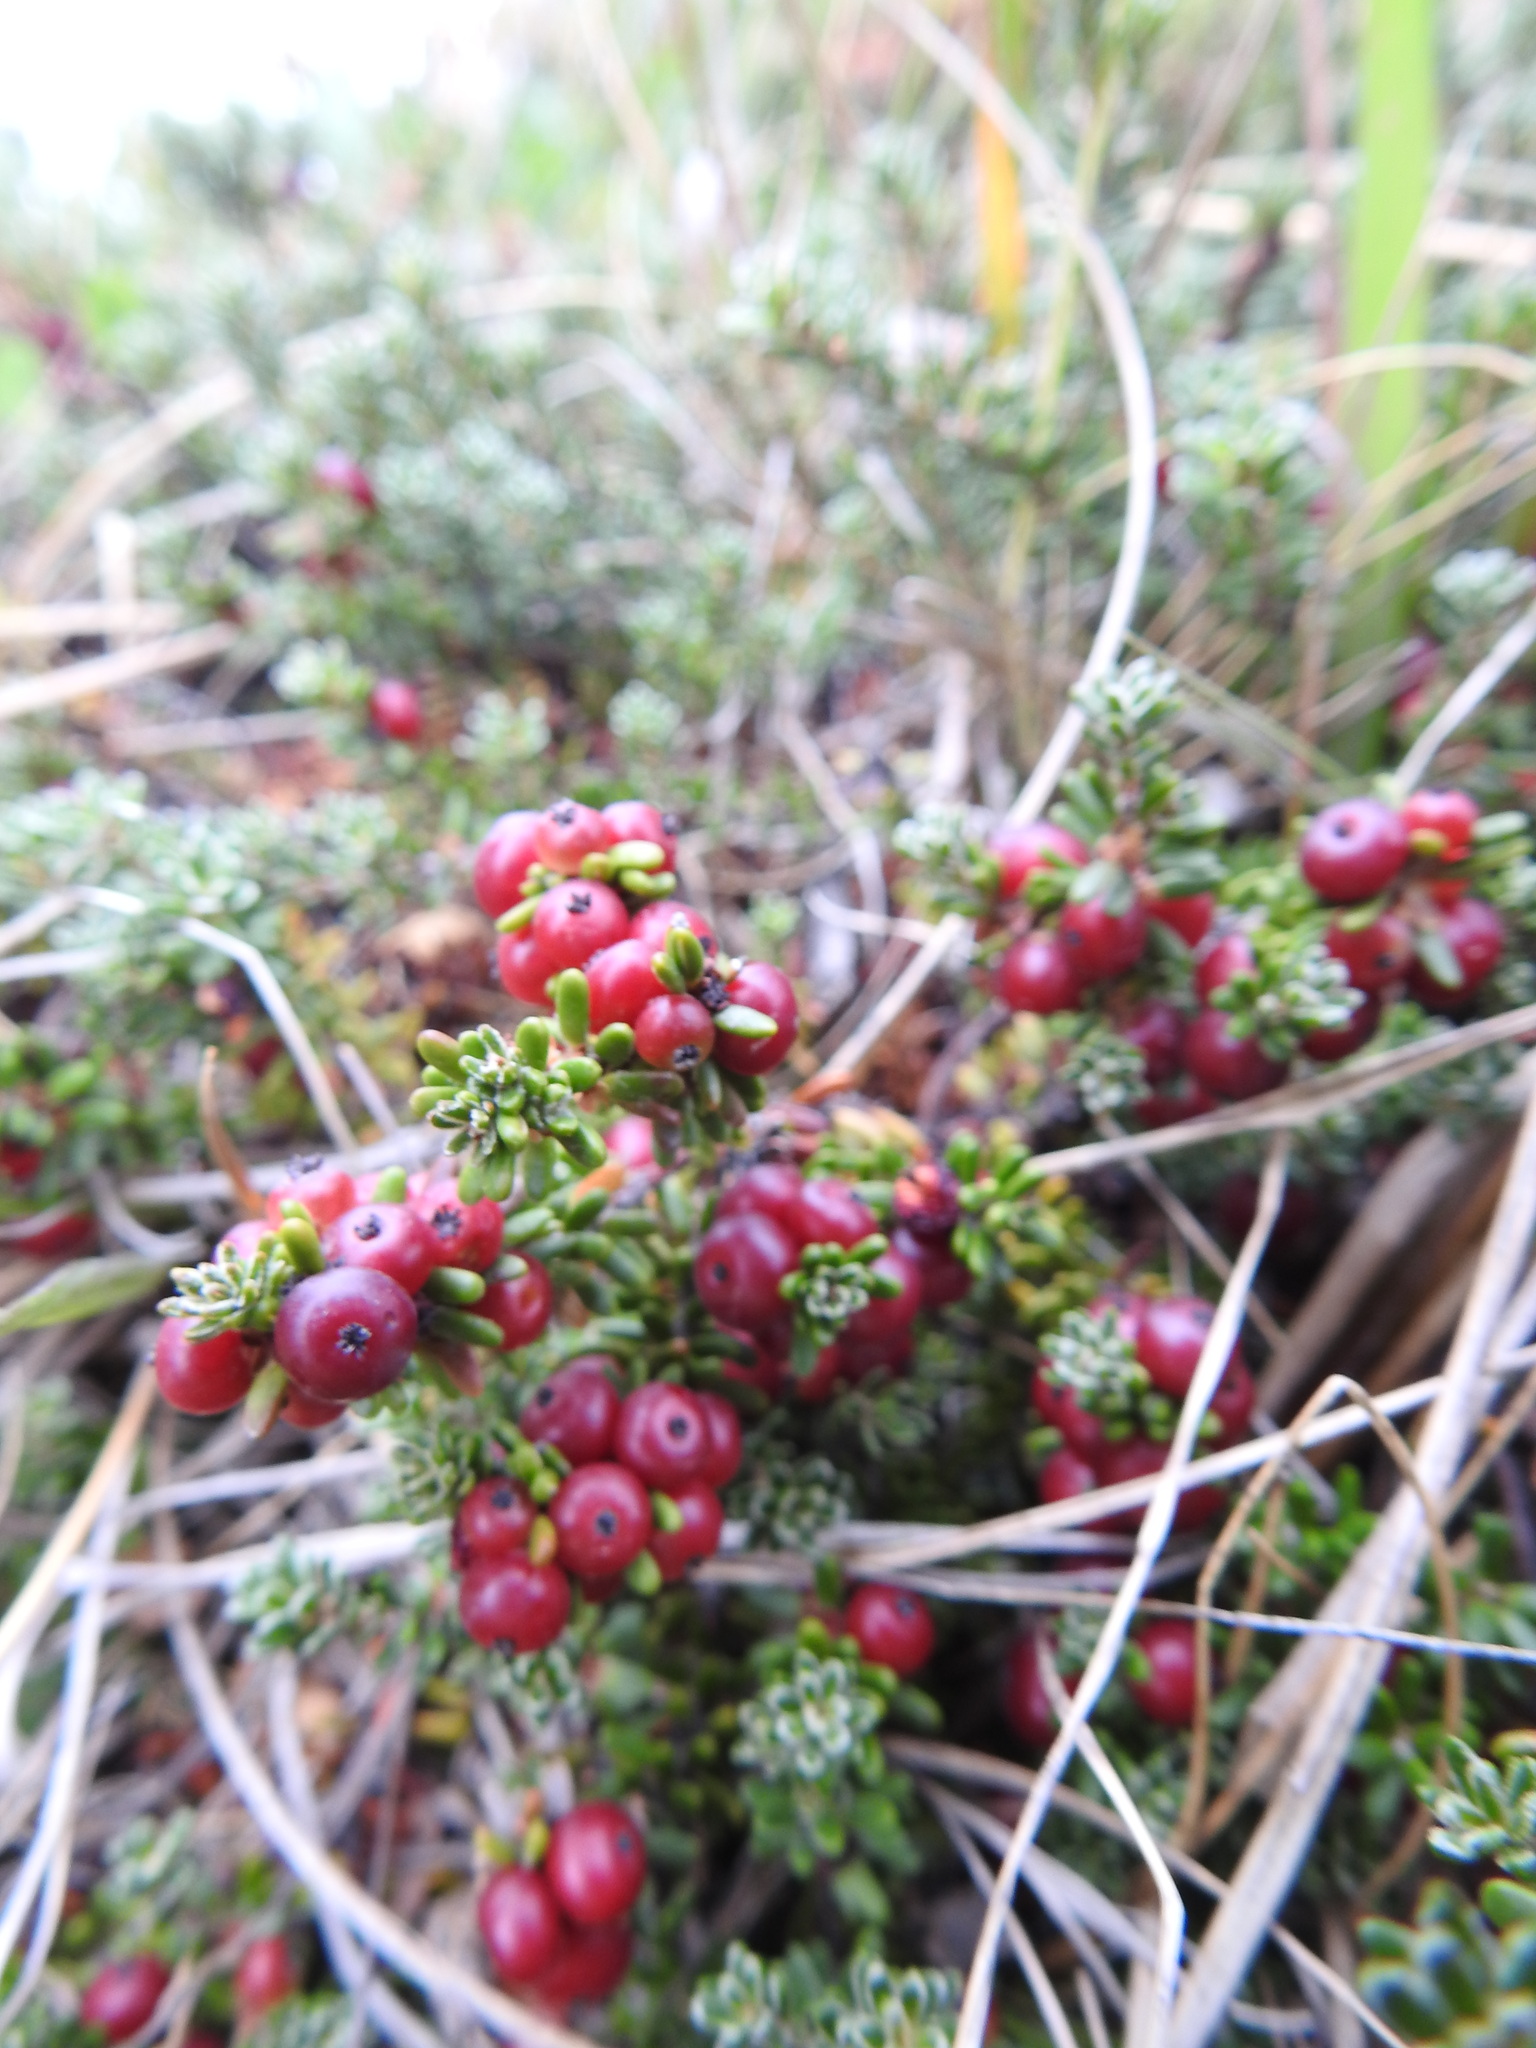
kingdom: Plantae
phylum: Tracheophyta
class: Magnoliopsida
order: Ericales
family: Ericaceae
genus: Empetrum
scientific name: Empetrum rubrum
